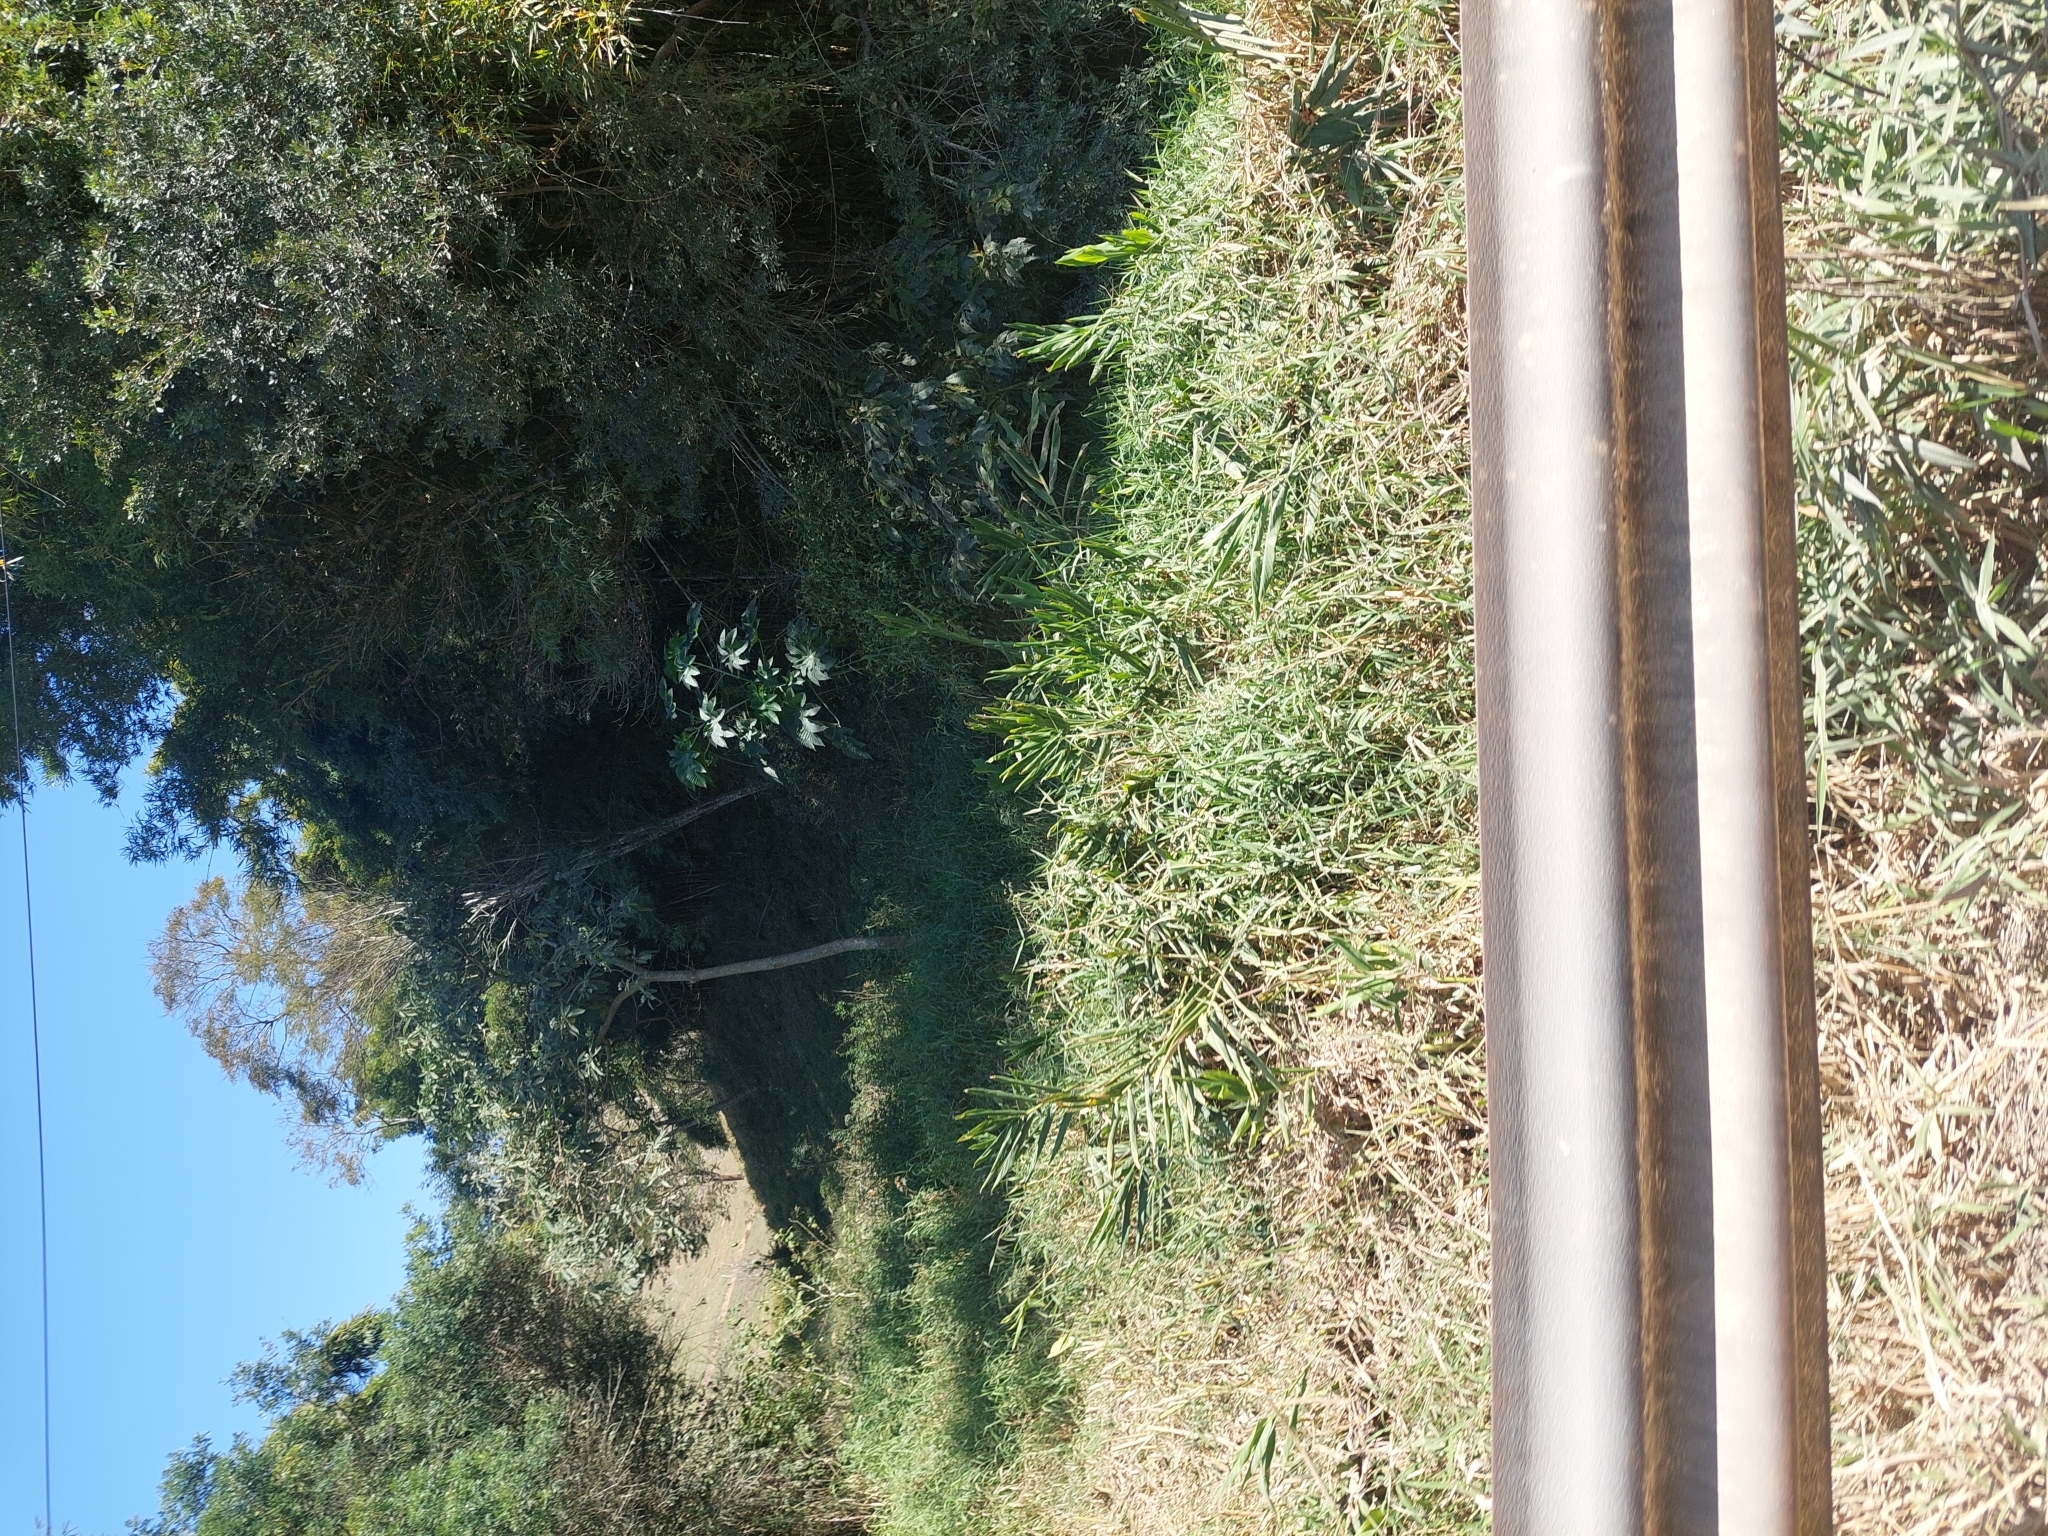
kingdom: Plantae
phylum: Tracheophyta
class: Liliopsida
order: Zingiberales
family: Zingiberaceae
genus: Hedychium
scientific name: Hedychium coronarium
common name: White garland-lily
